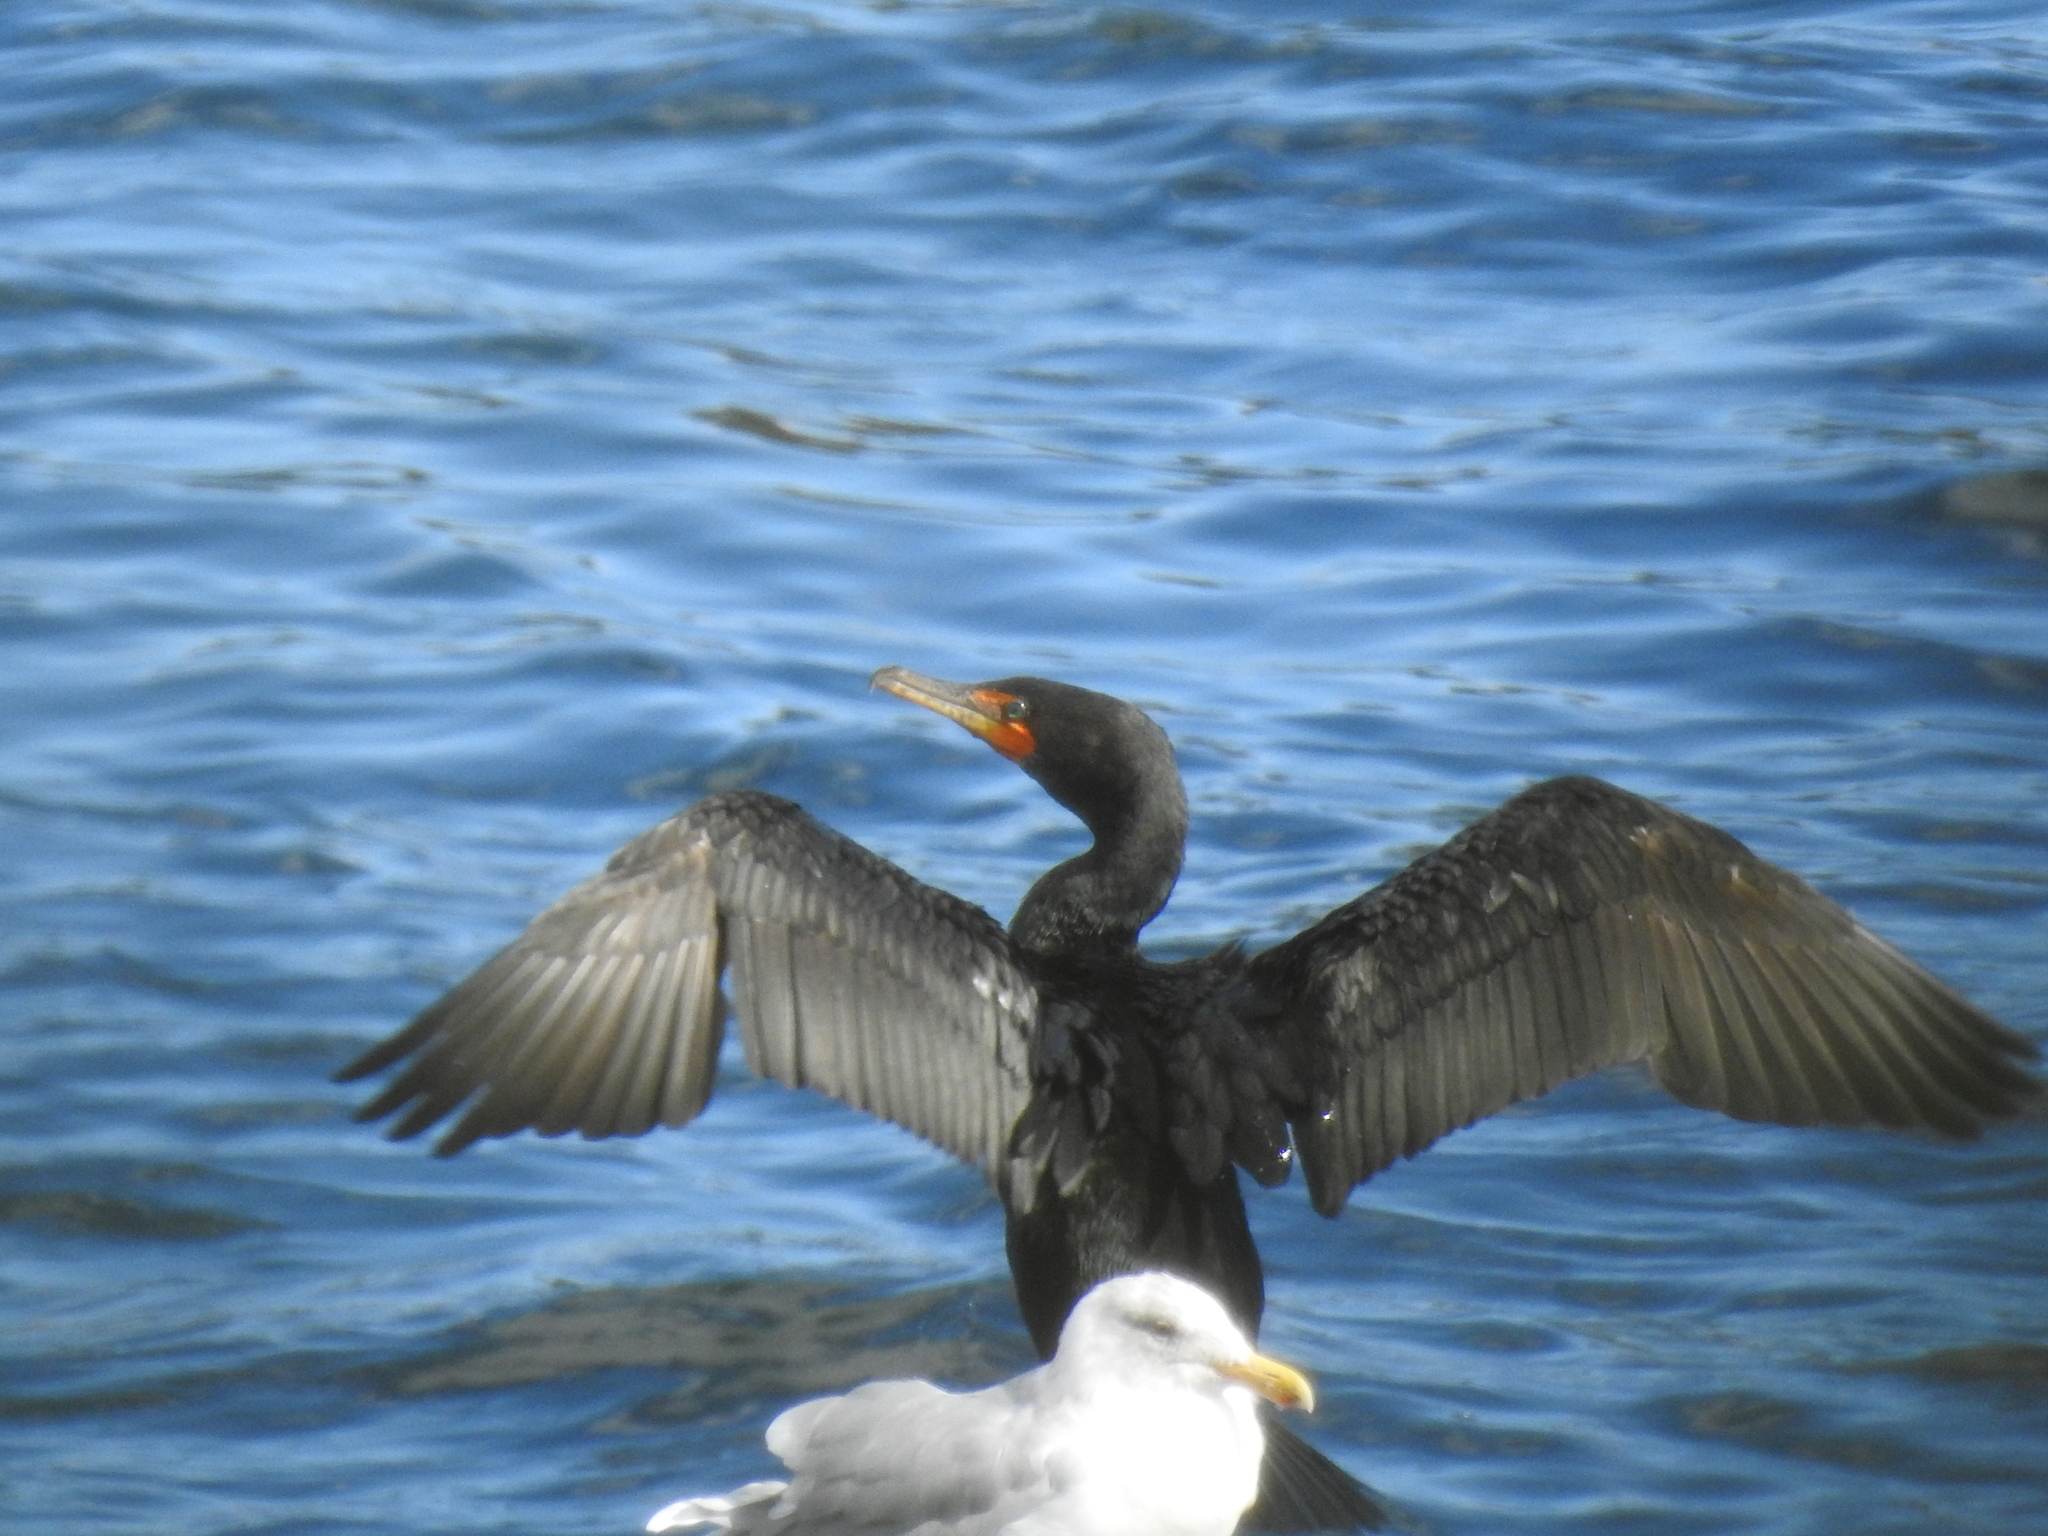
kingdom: Animalia
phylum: Chordata
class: Aves
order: Suliformes
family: Phalacrocoracidae
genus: Phalacrocorax
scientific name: Phalacrocorax auritus
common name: Double-crested cormorant
